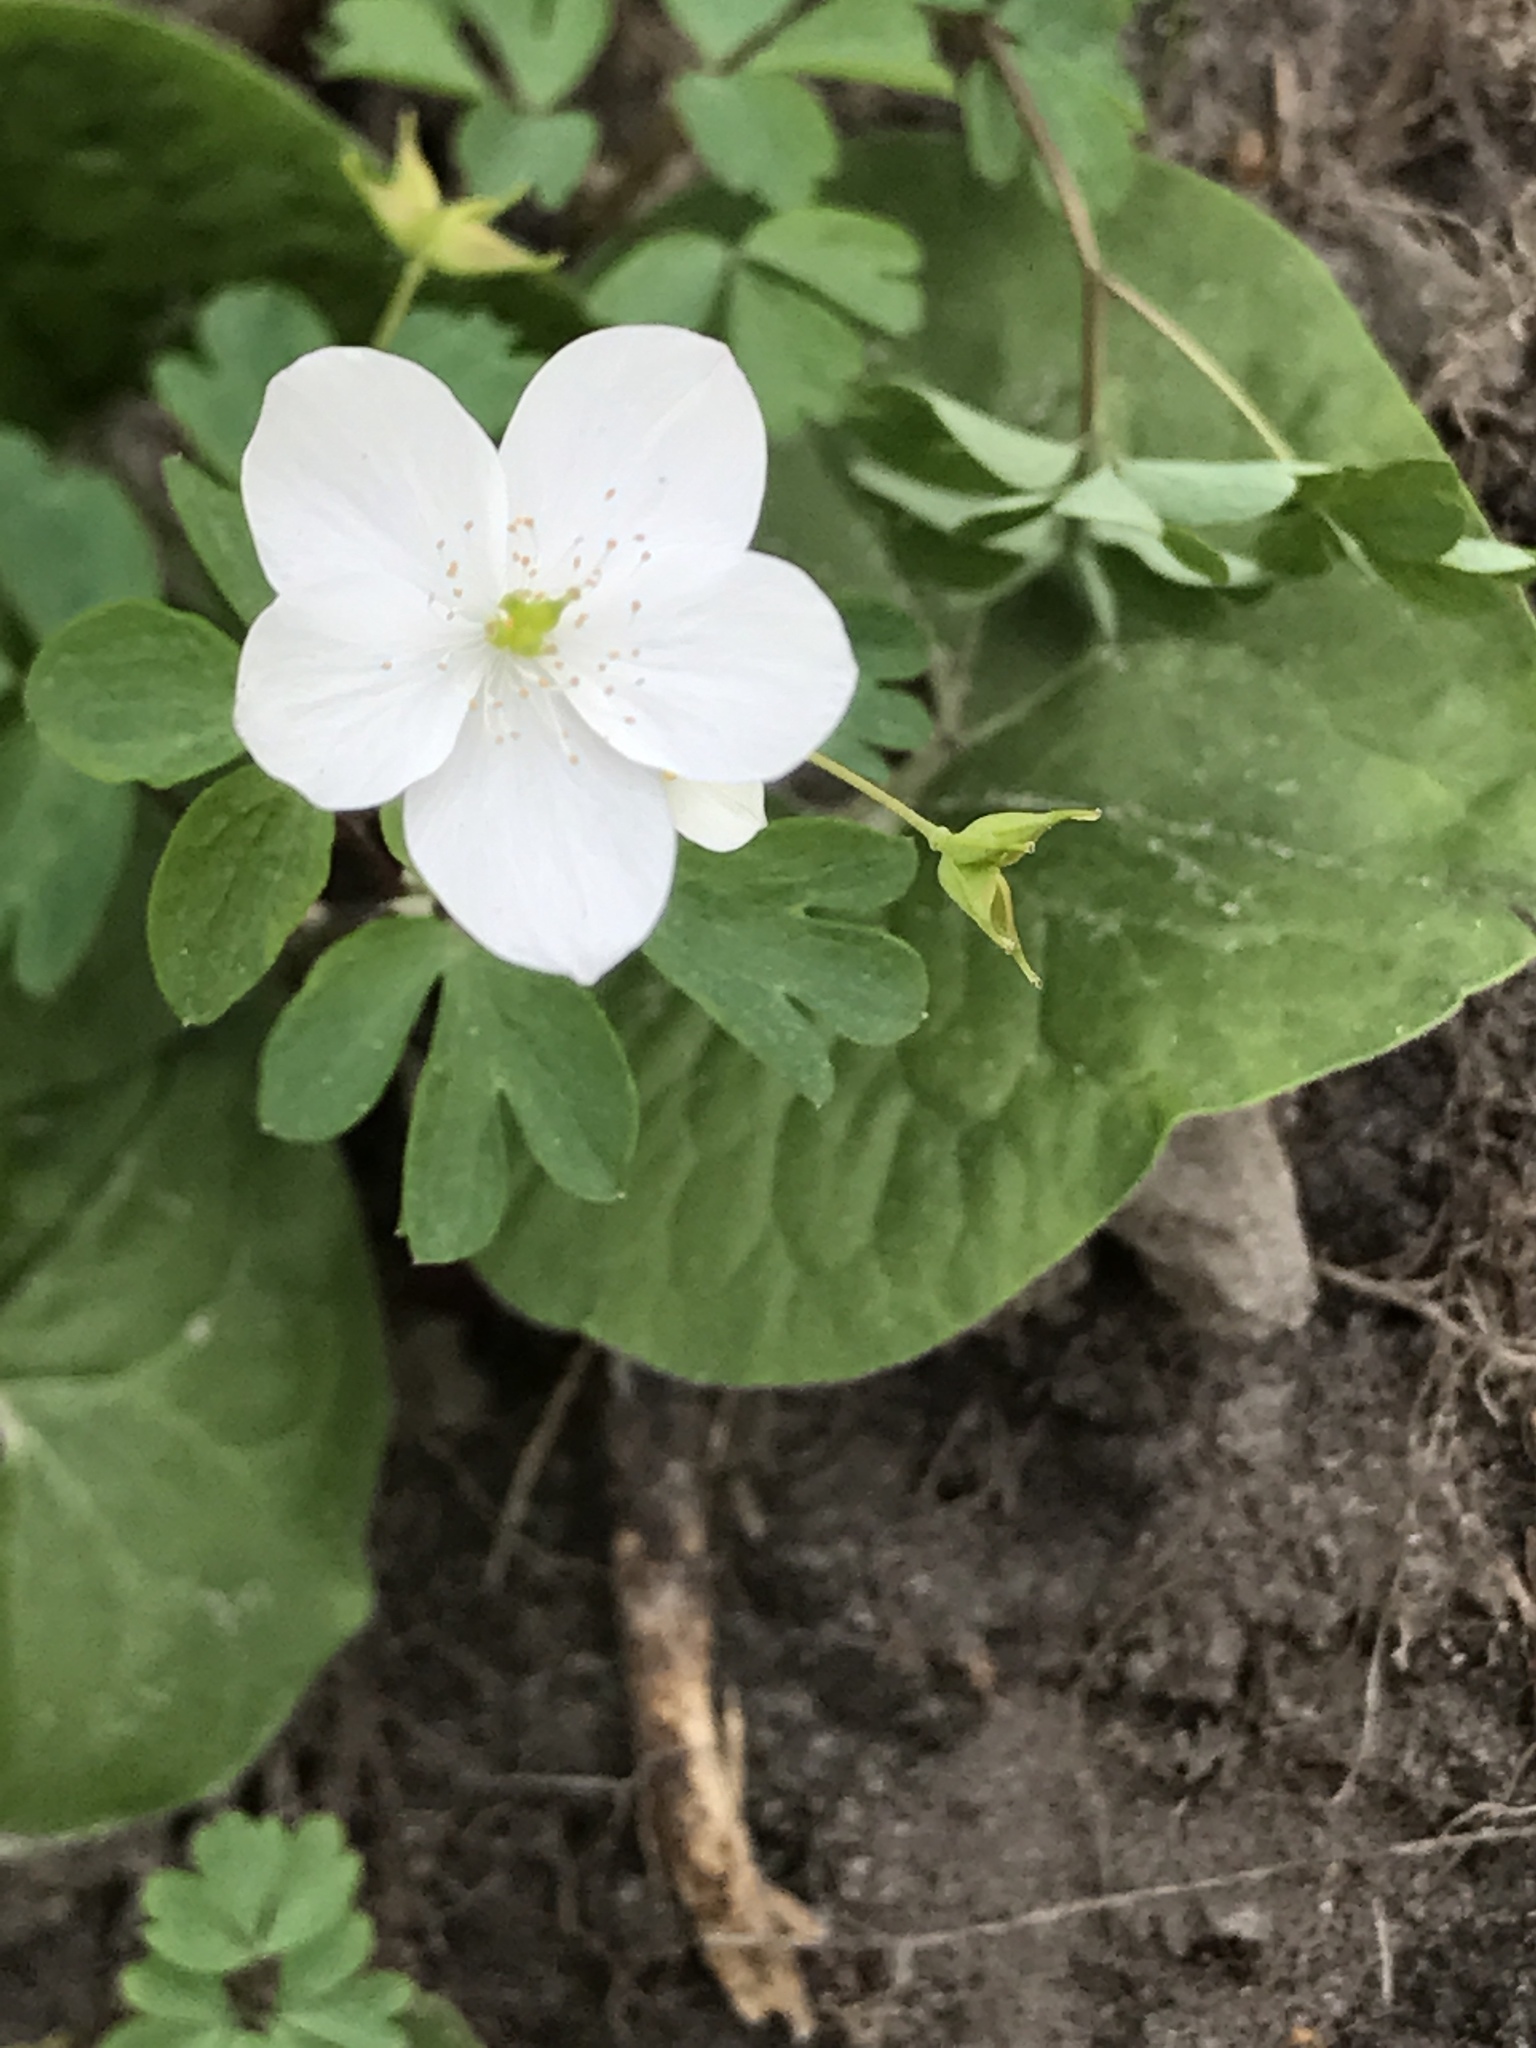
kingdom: Plantae
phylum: Tracheophyta
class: Magnoliopsida
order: Ranunculales
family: Ranunculaceae
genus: Enemion
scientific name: Enemion biternatum
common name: Eastern false rue-anemone
